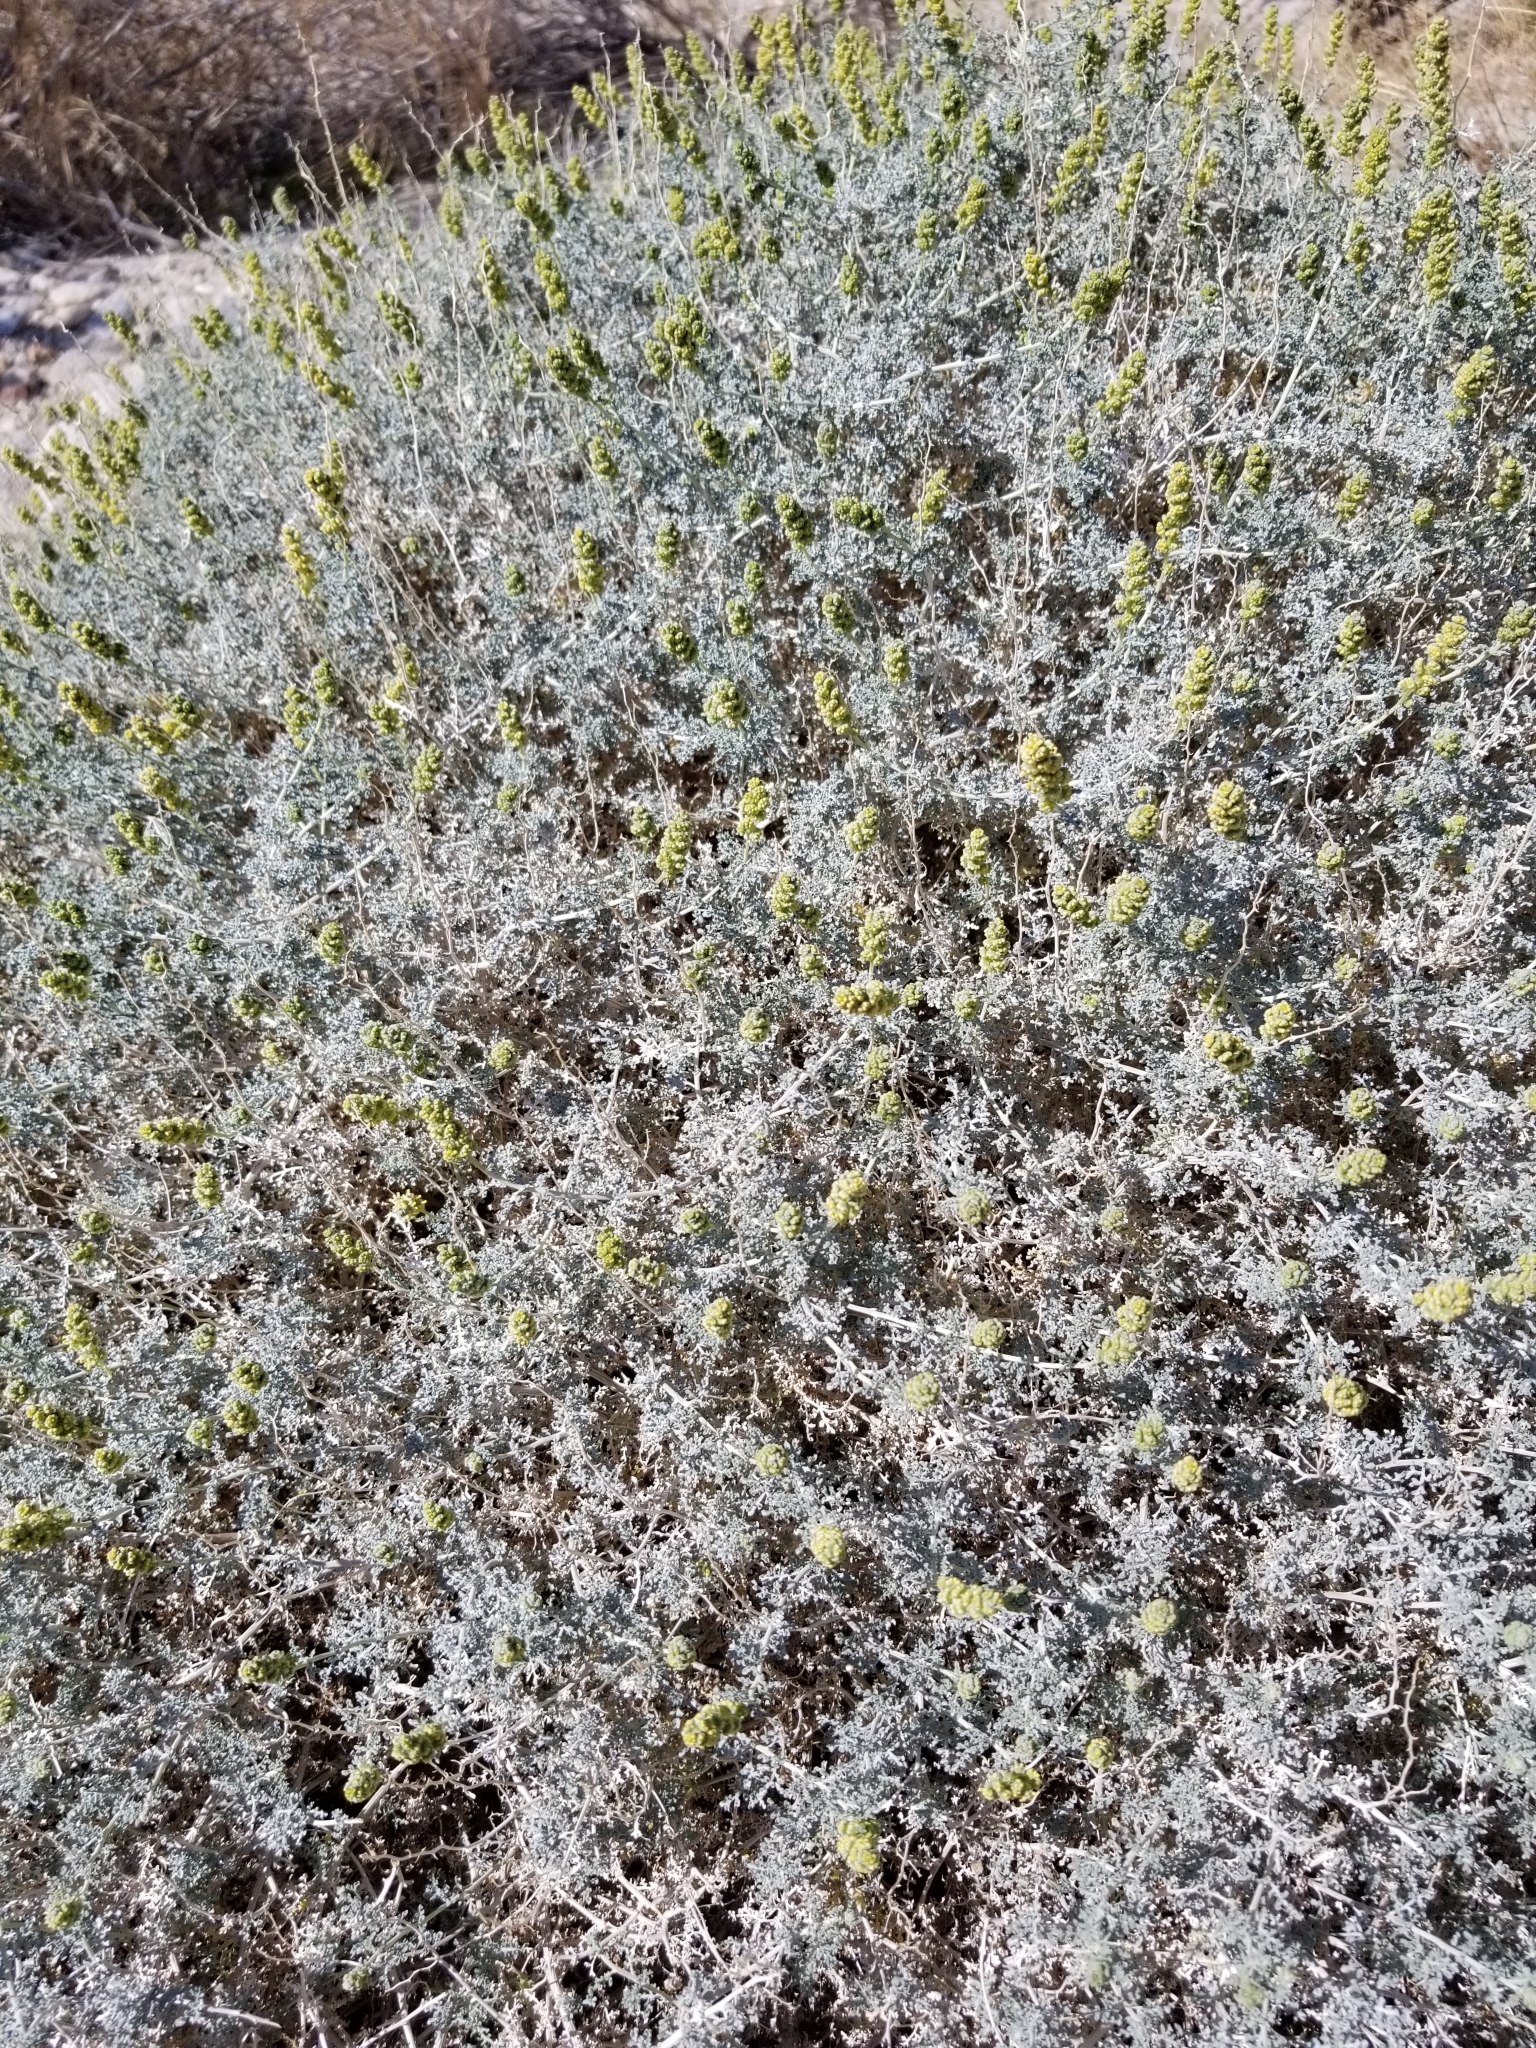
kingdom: Plantae
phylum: Tracheophyta
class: Magnoliopsida
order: Asterales
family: Asteraceae
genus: Ambrosia
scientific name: Ambrosia dumosa
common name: Bur-sage
